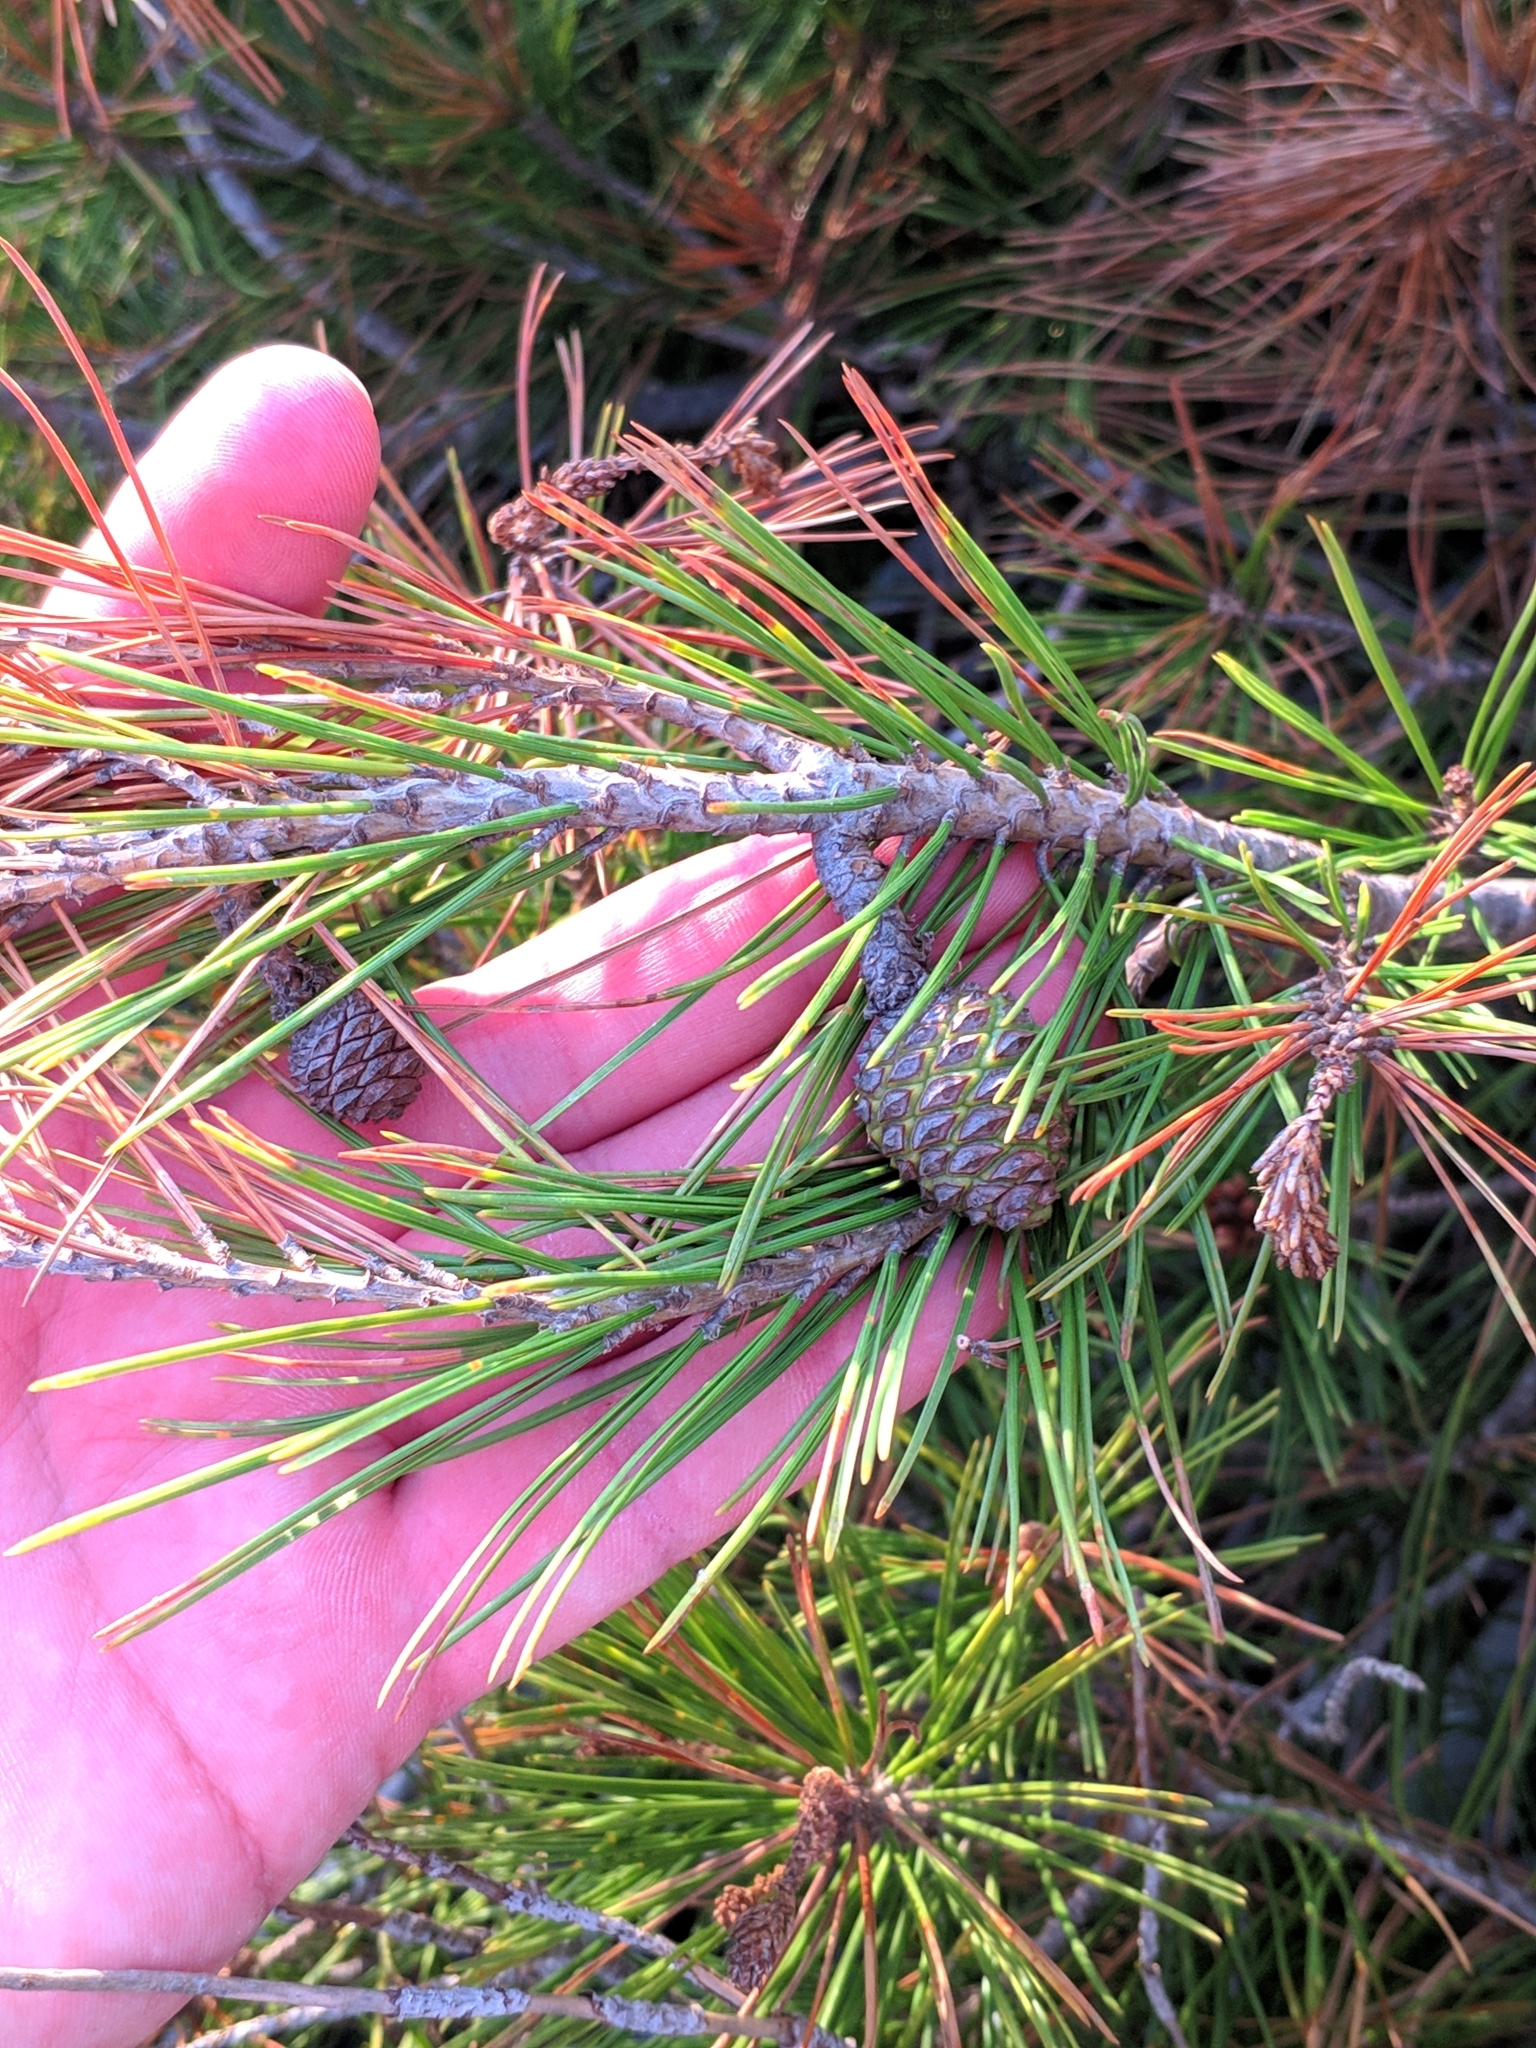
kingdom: Plantae
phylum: Tracheophyta
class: Pinopsida
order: Pinales
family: Pinaceae
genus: Pinus
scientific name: Pinus halepensis
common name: Aleppo pine
